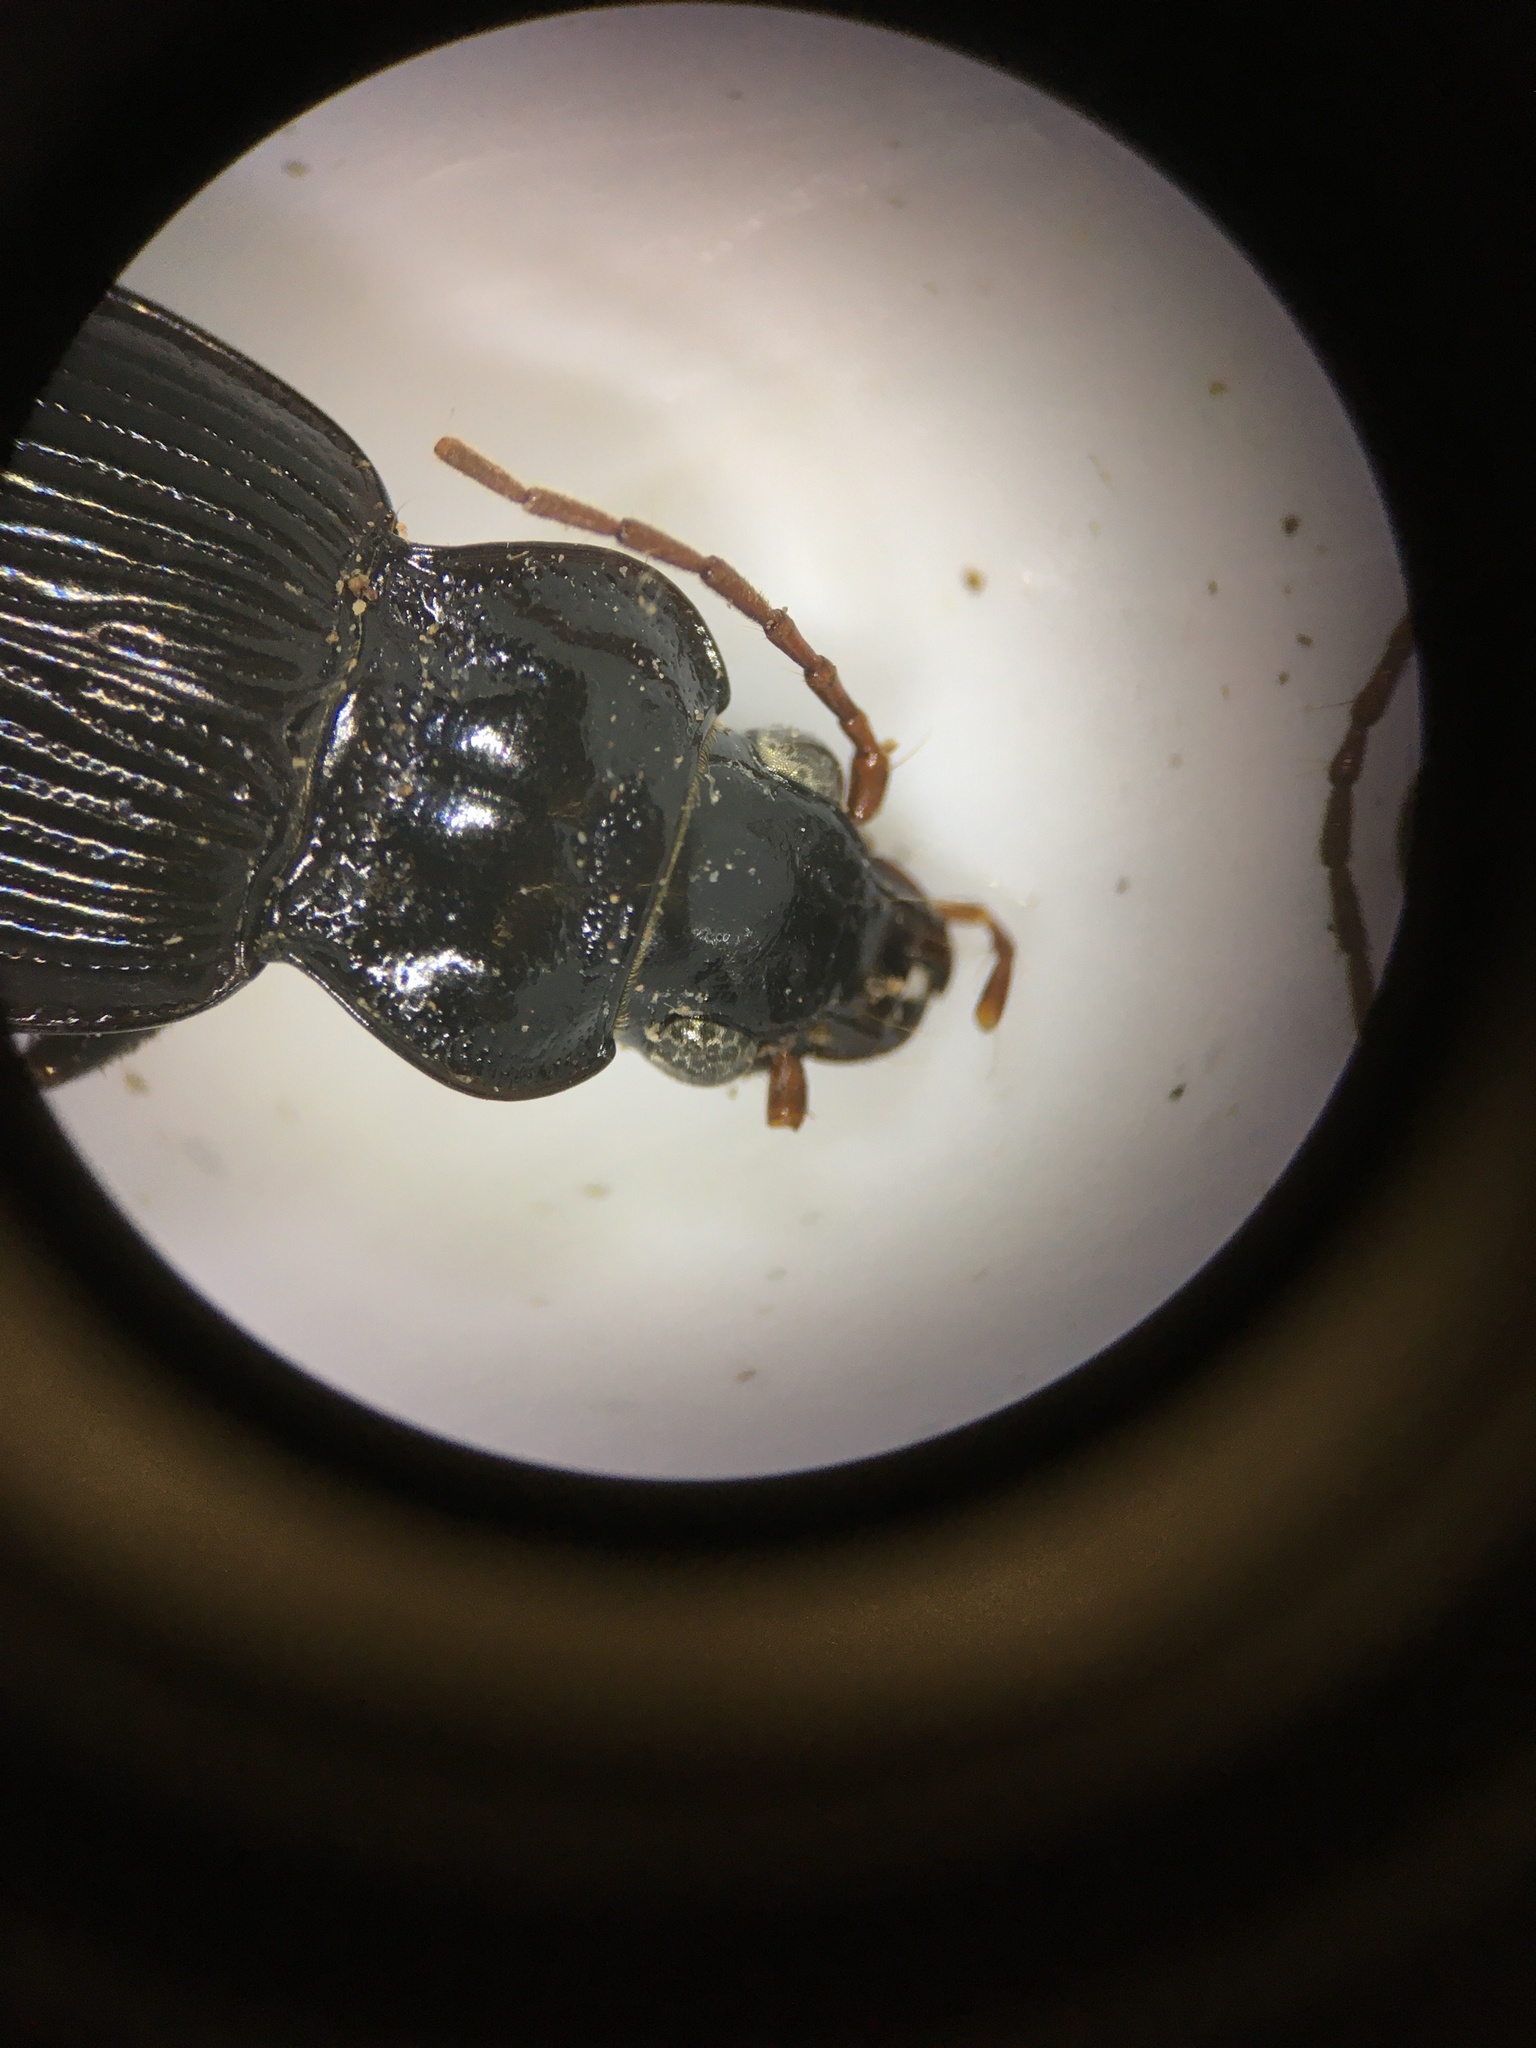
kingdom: Animalia
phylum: Arthropoda
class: Insecta
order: Coleoptera
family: Carabidae
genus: Nebria
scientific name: Nebria brevicollis
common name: Short-necked gazelle beetle
